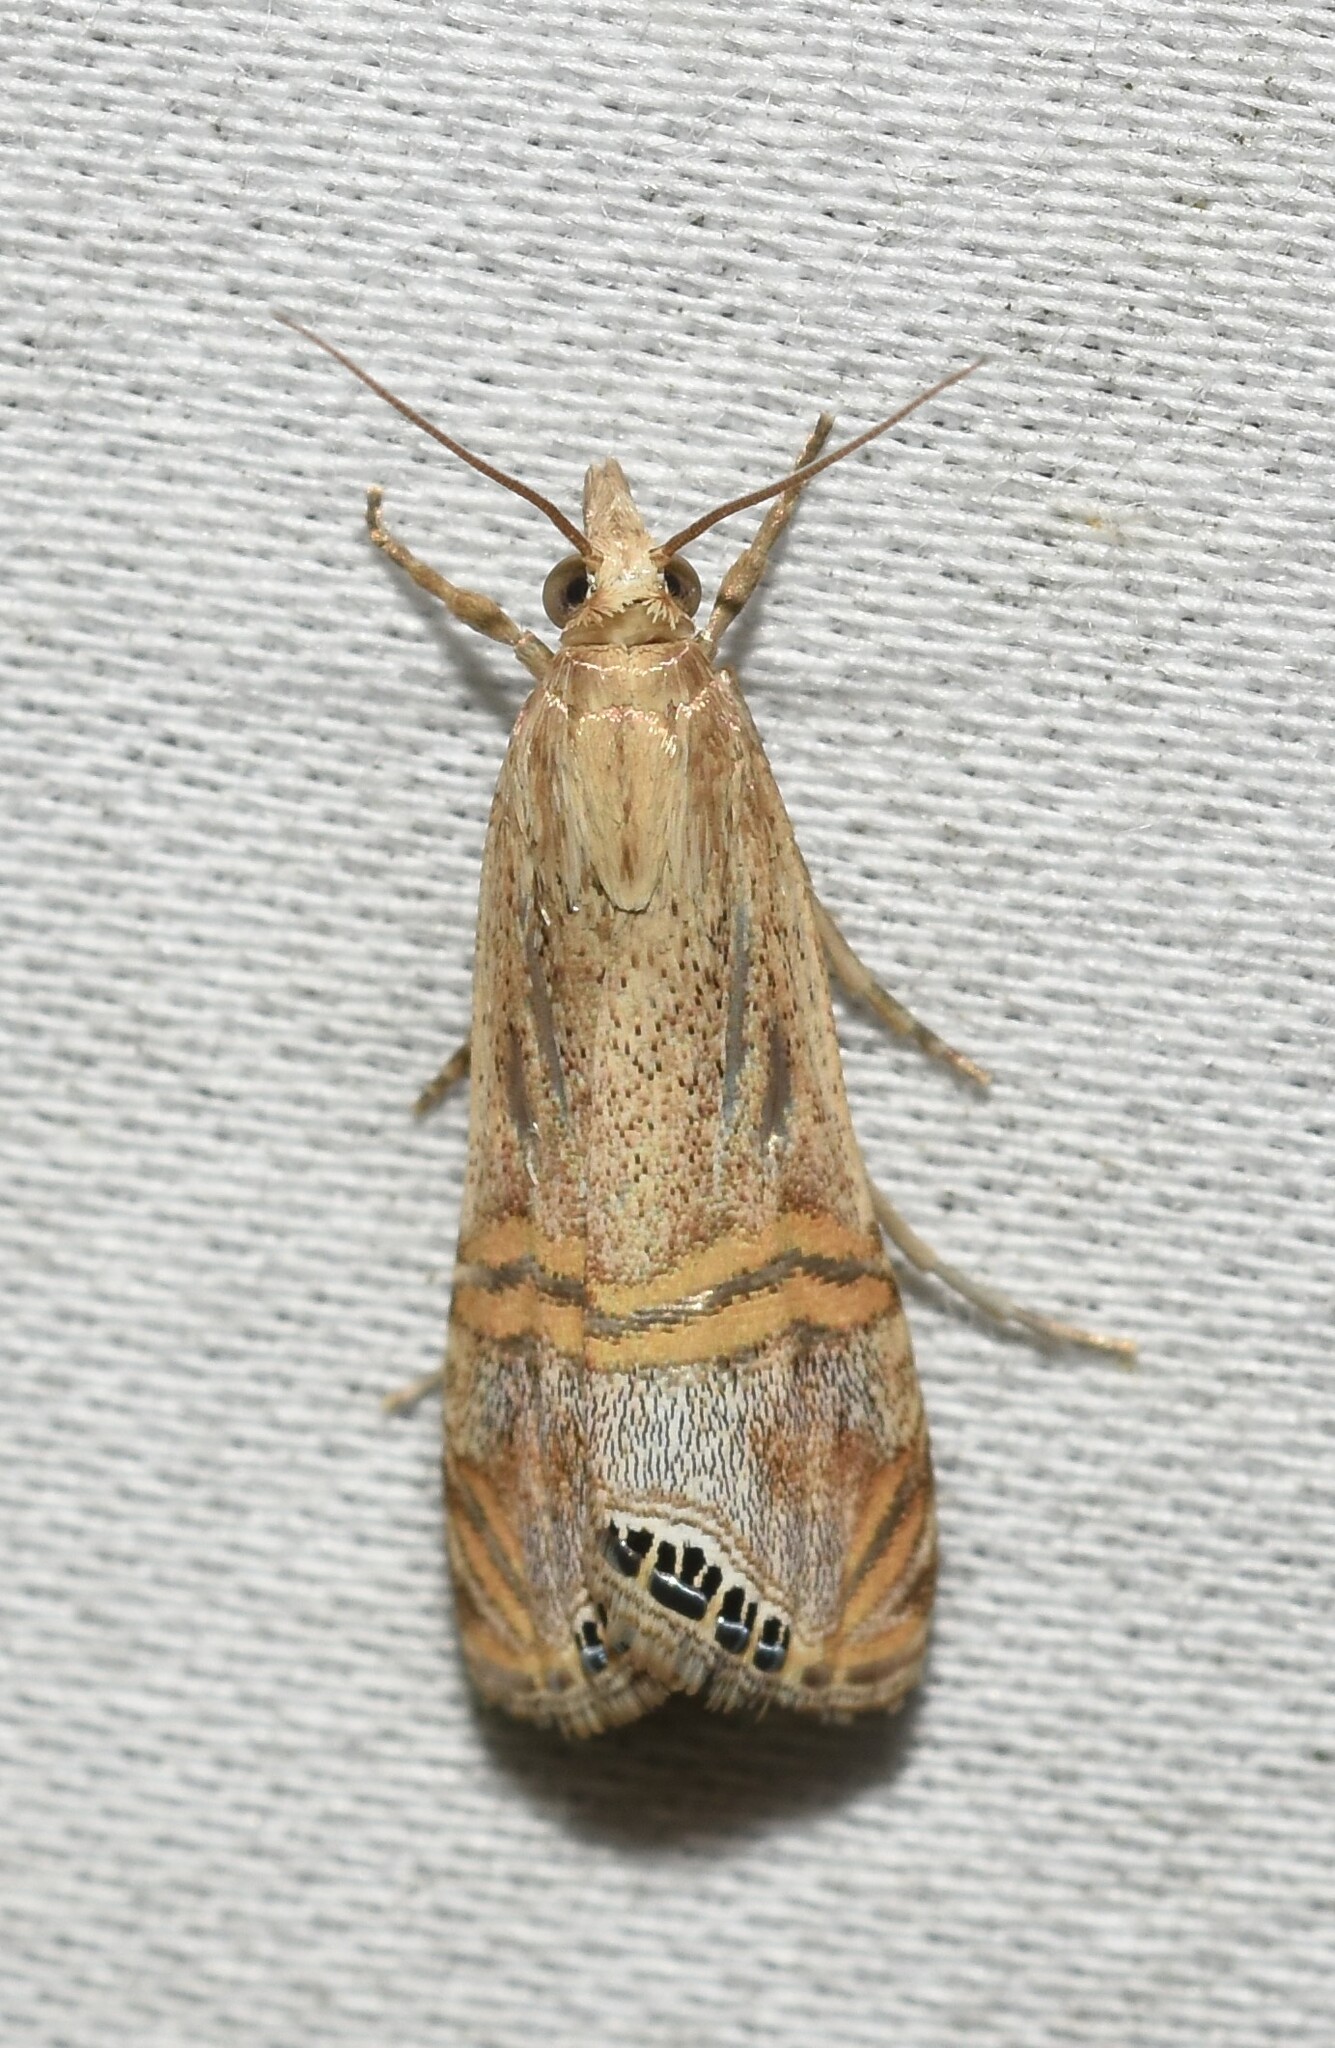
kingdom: Animalia
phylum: Arthropoda
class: Insecta
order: Lepidoptera
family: Crambidae
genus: Euchromius
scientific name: Euchromius ocellea
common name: Necklace veneer moth
